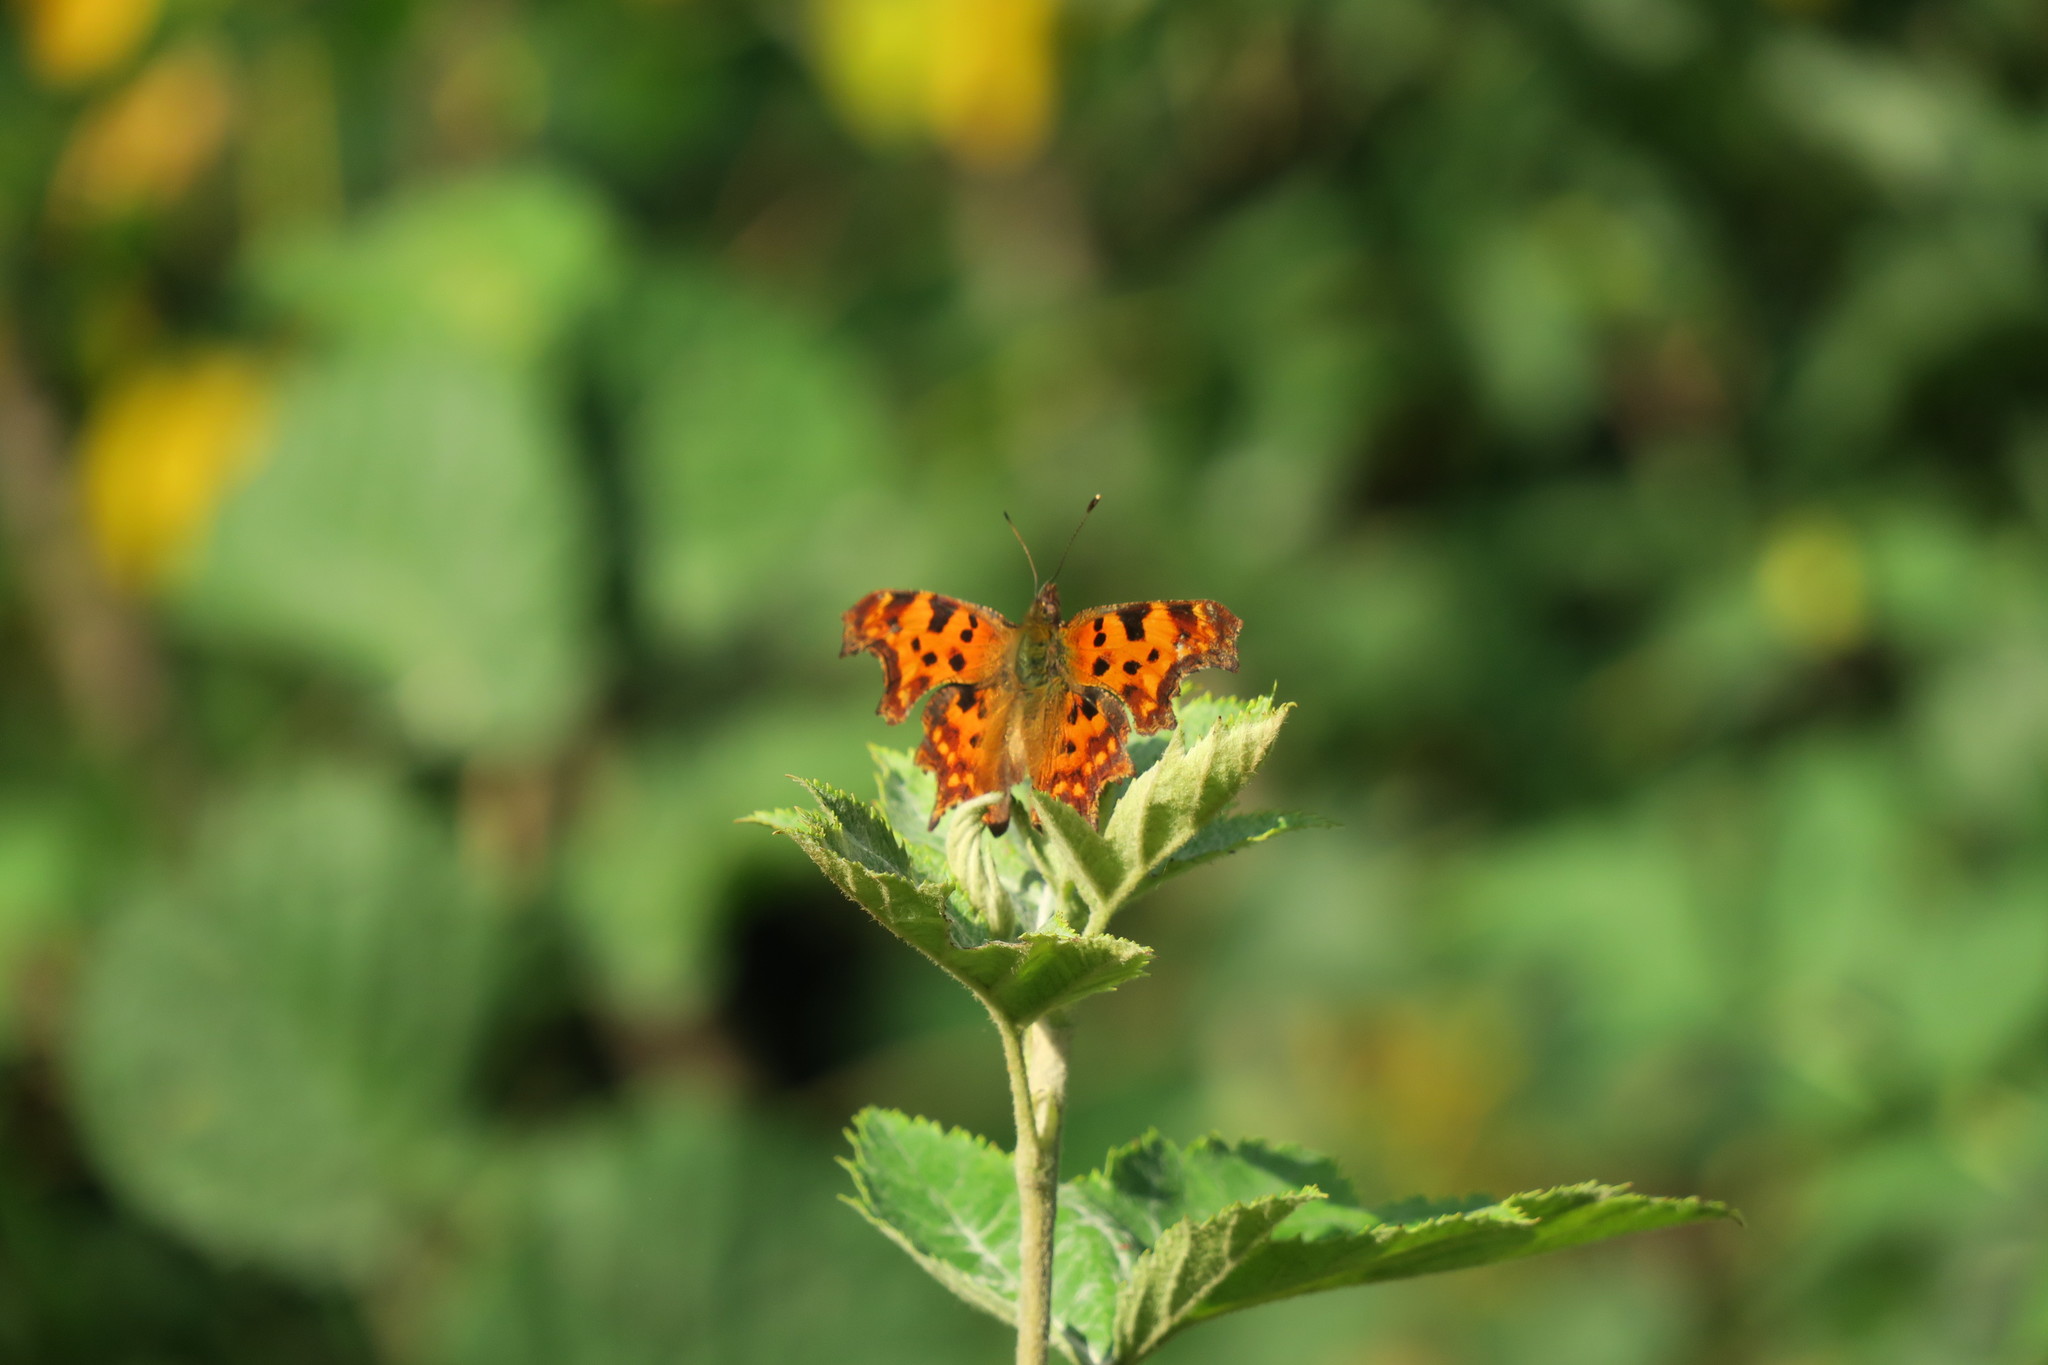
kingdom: Animalia
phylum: Arthropoda
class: Insecta
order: Lepidoptera
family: Nymphalidae
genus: Polygonia
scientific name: Polygonia c-album
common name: Comma
